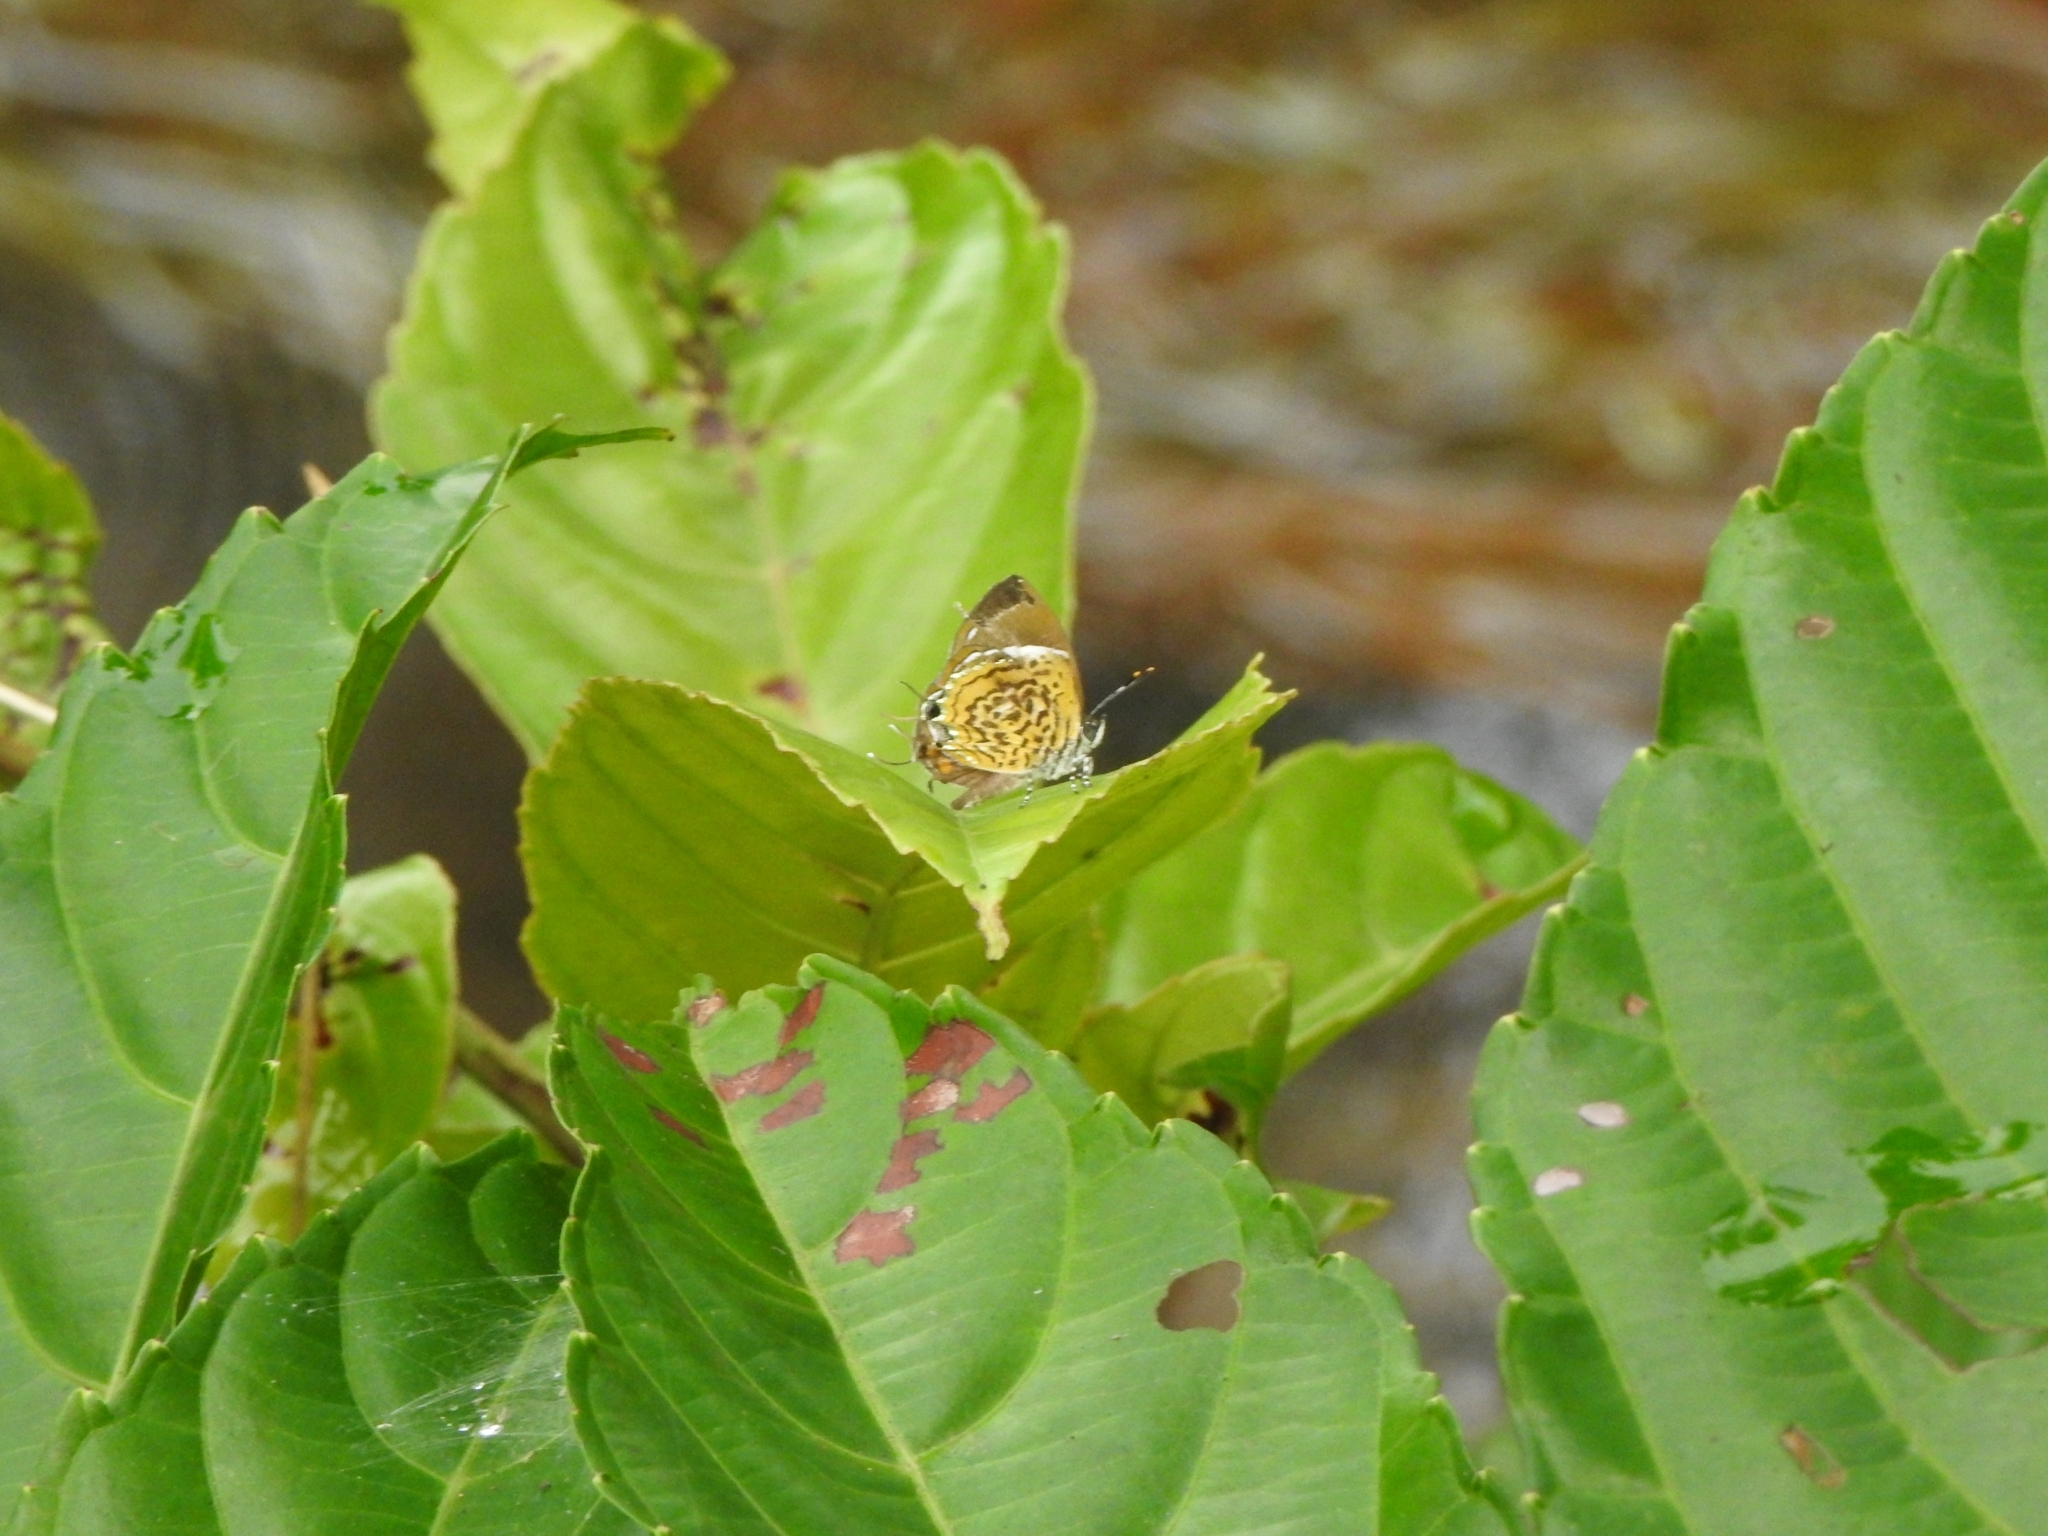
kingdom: Animalia
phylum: Arthropoda
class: Insecta
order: Lepidoptera
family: Lycaenidae
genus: Rathinda
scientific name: Rathinda amor
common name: Monkey puzzle
